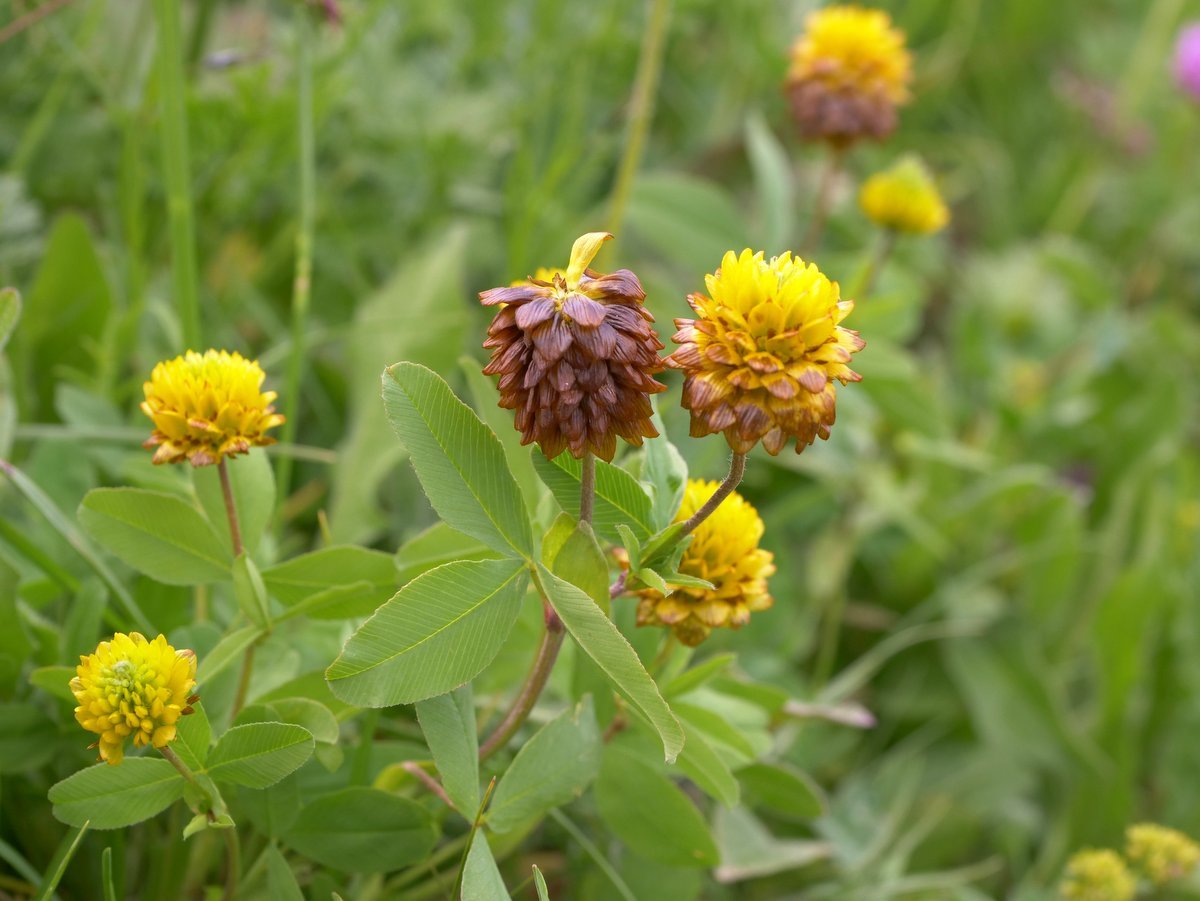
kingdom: Plantae
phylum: Tracheophyta
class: Magnoliopsida
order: Fabales
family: Fabaceae
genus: Trifolium
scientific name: Trifolium badium
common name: Brown clover
